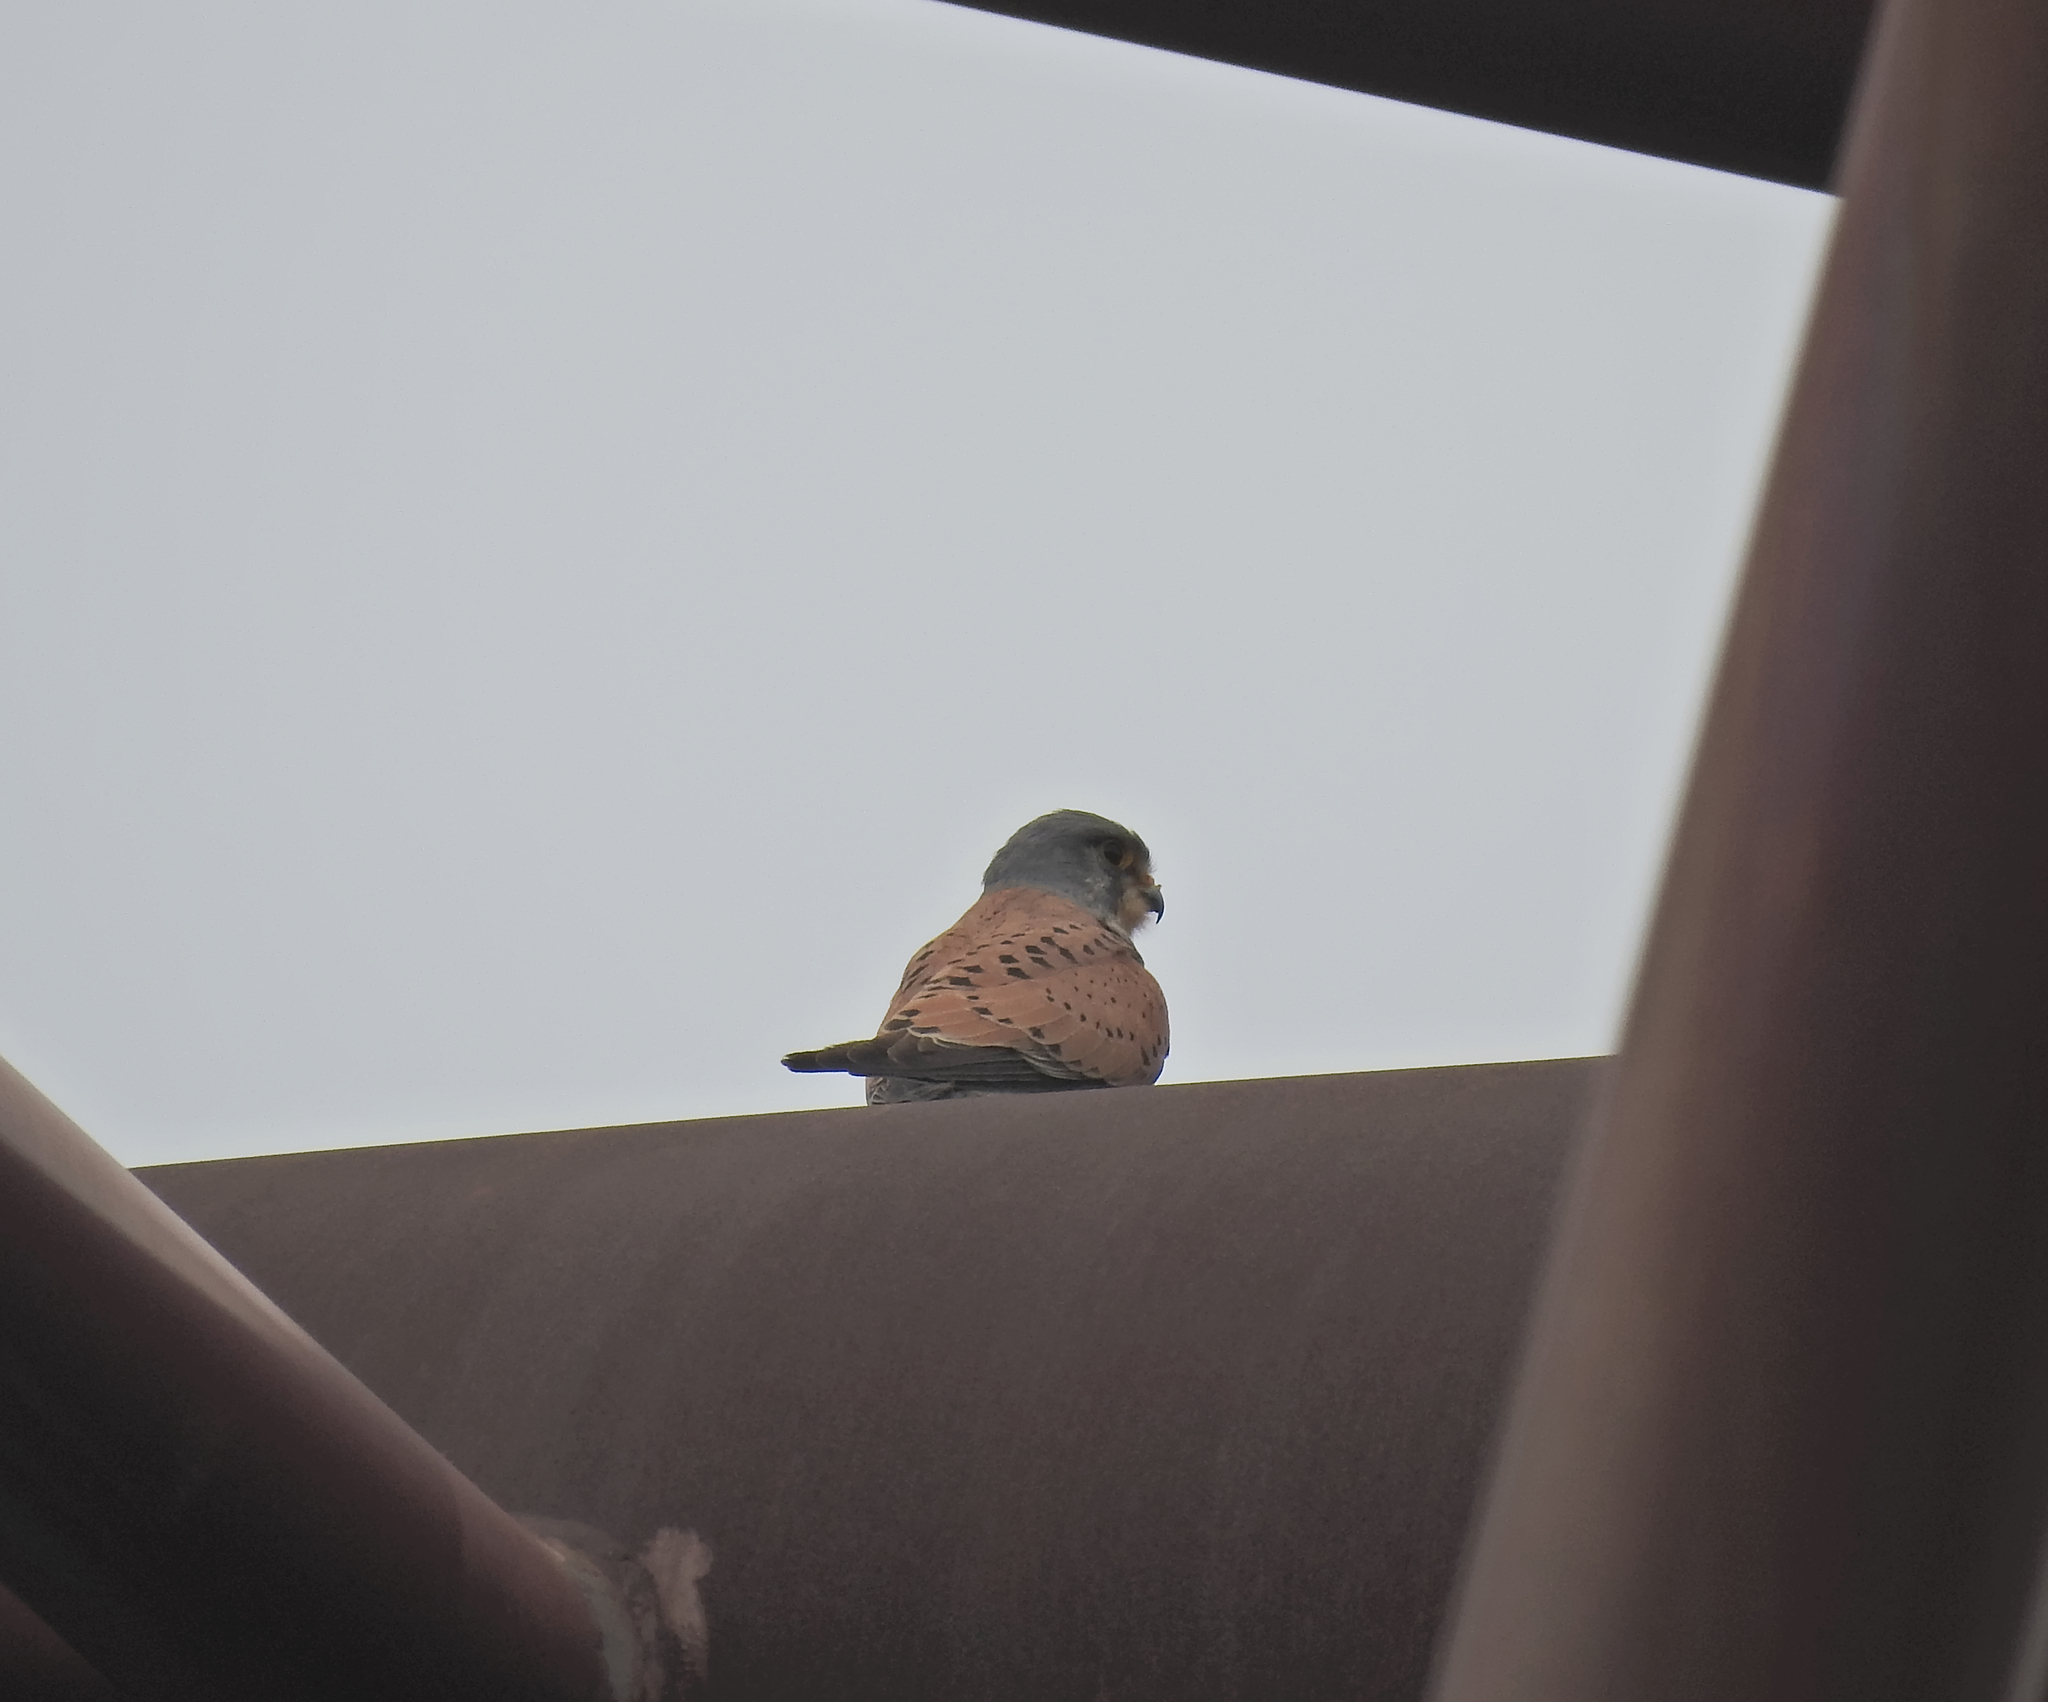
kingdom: Animalia
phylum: Chordata
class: Aves
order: Falconiformes
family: Falconidae
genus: Falco
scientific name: Falco tinnunculus
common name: Common kestrel
